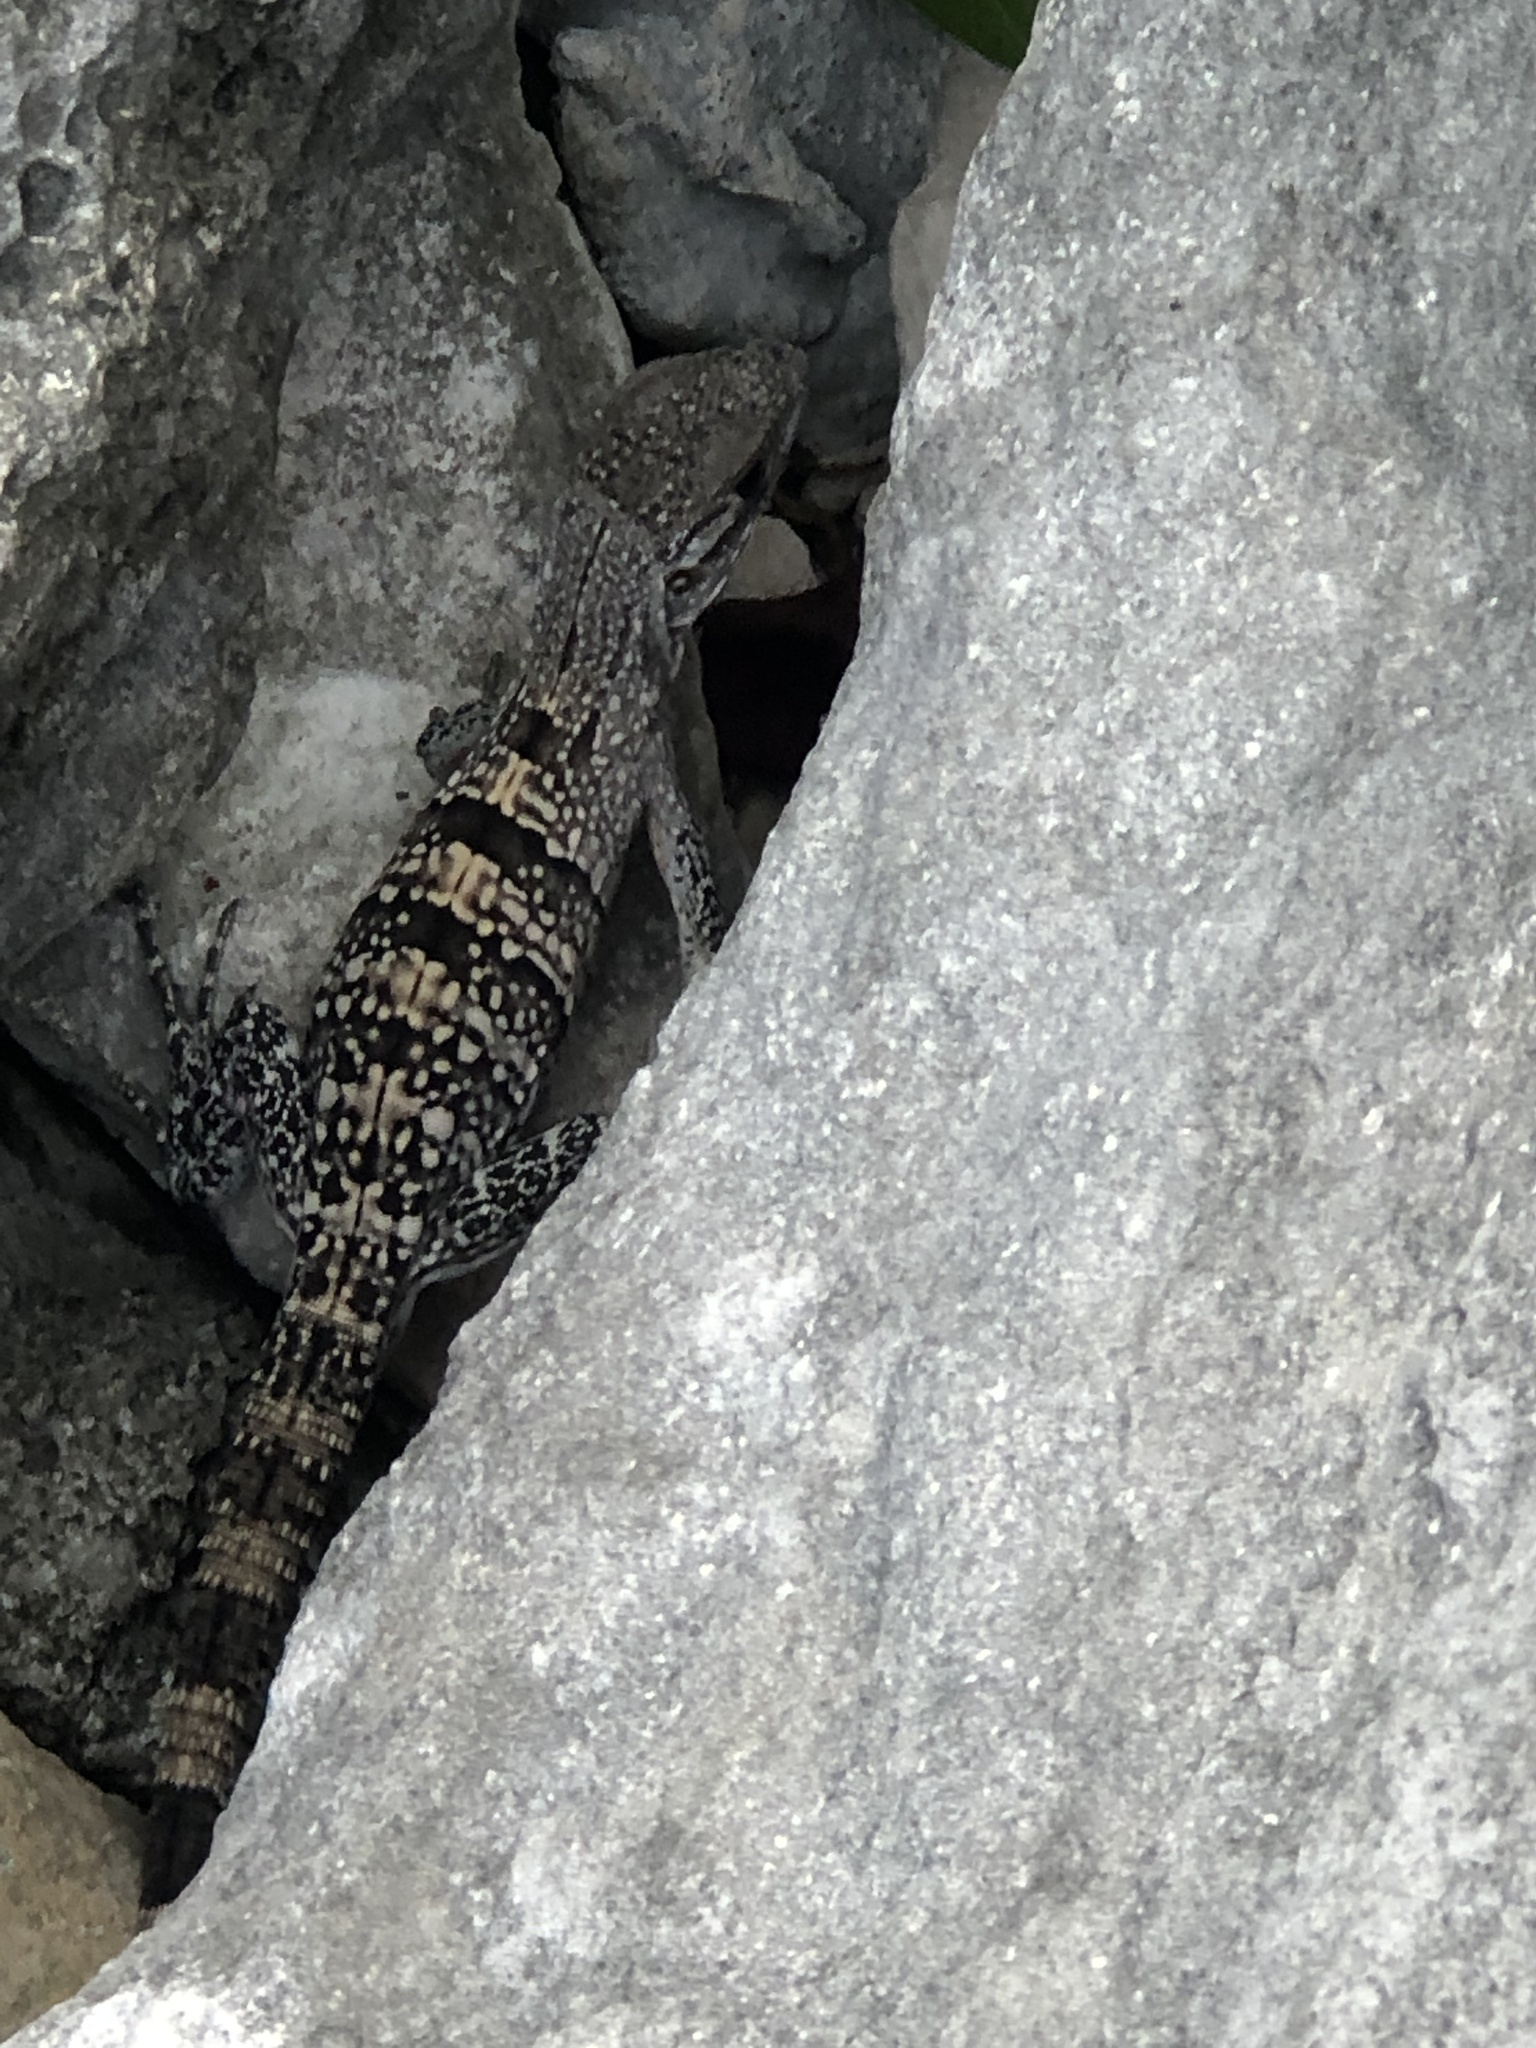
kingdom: Animalia
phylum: Chordata
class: Squamata
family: Iguanidae
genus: Ctenosaura
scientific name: Ctenosaura similis
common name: Black spiny-tailed iguana
